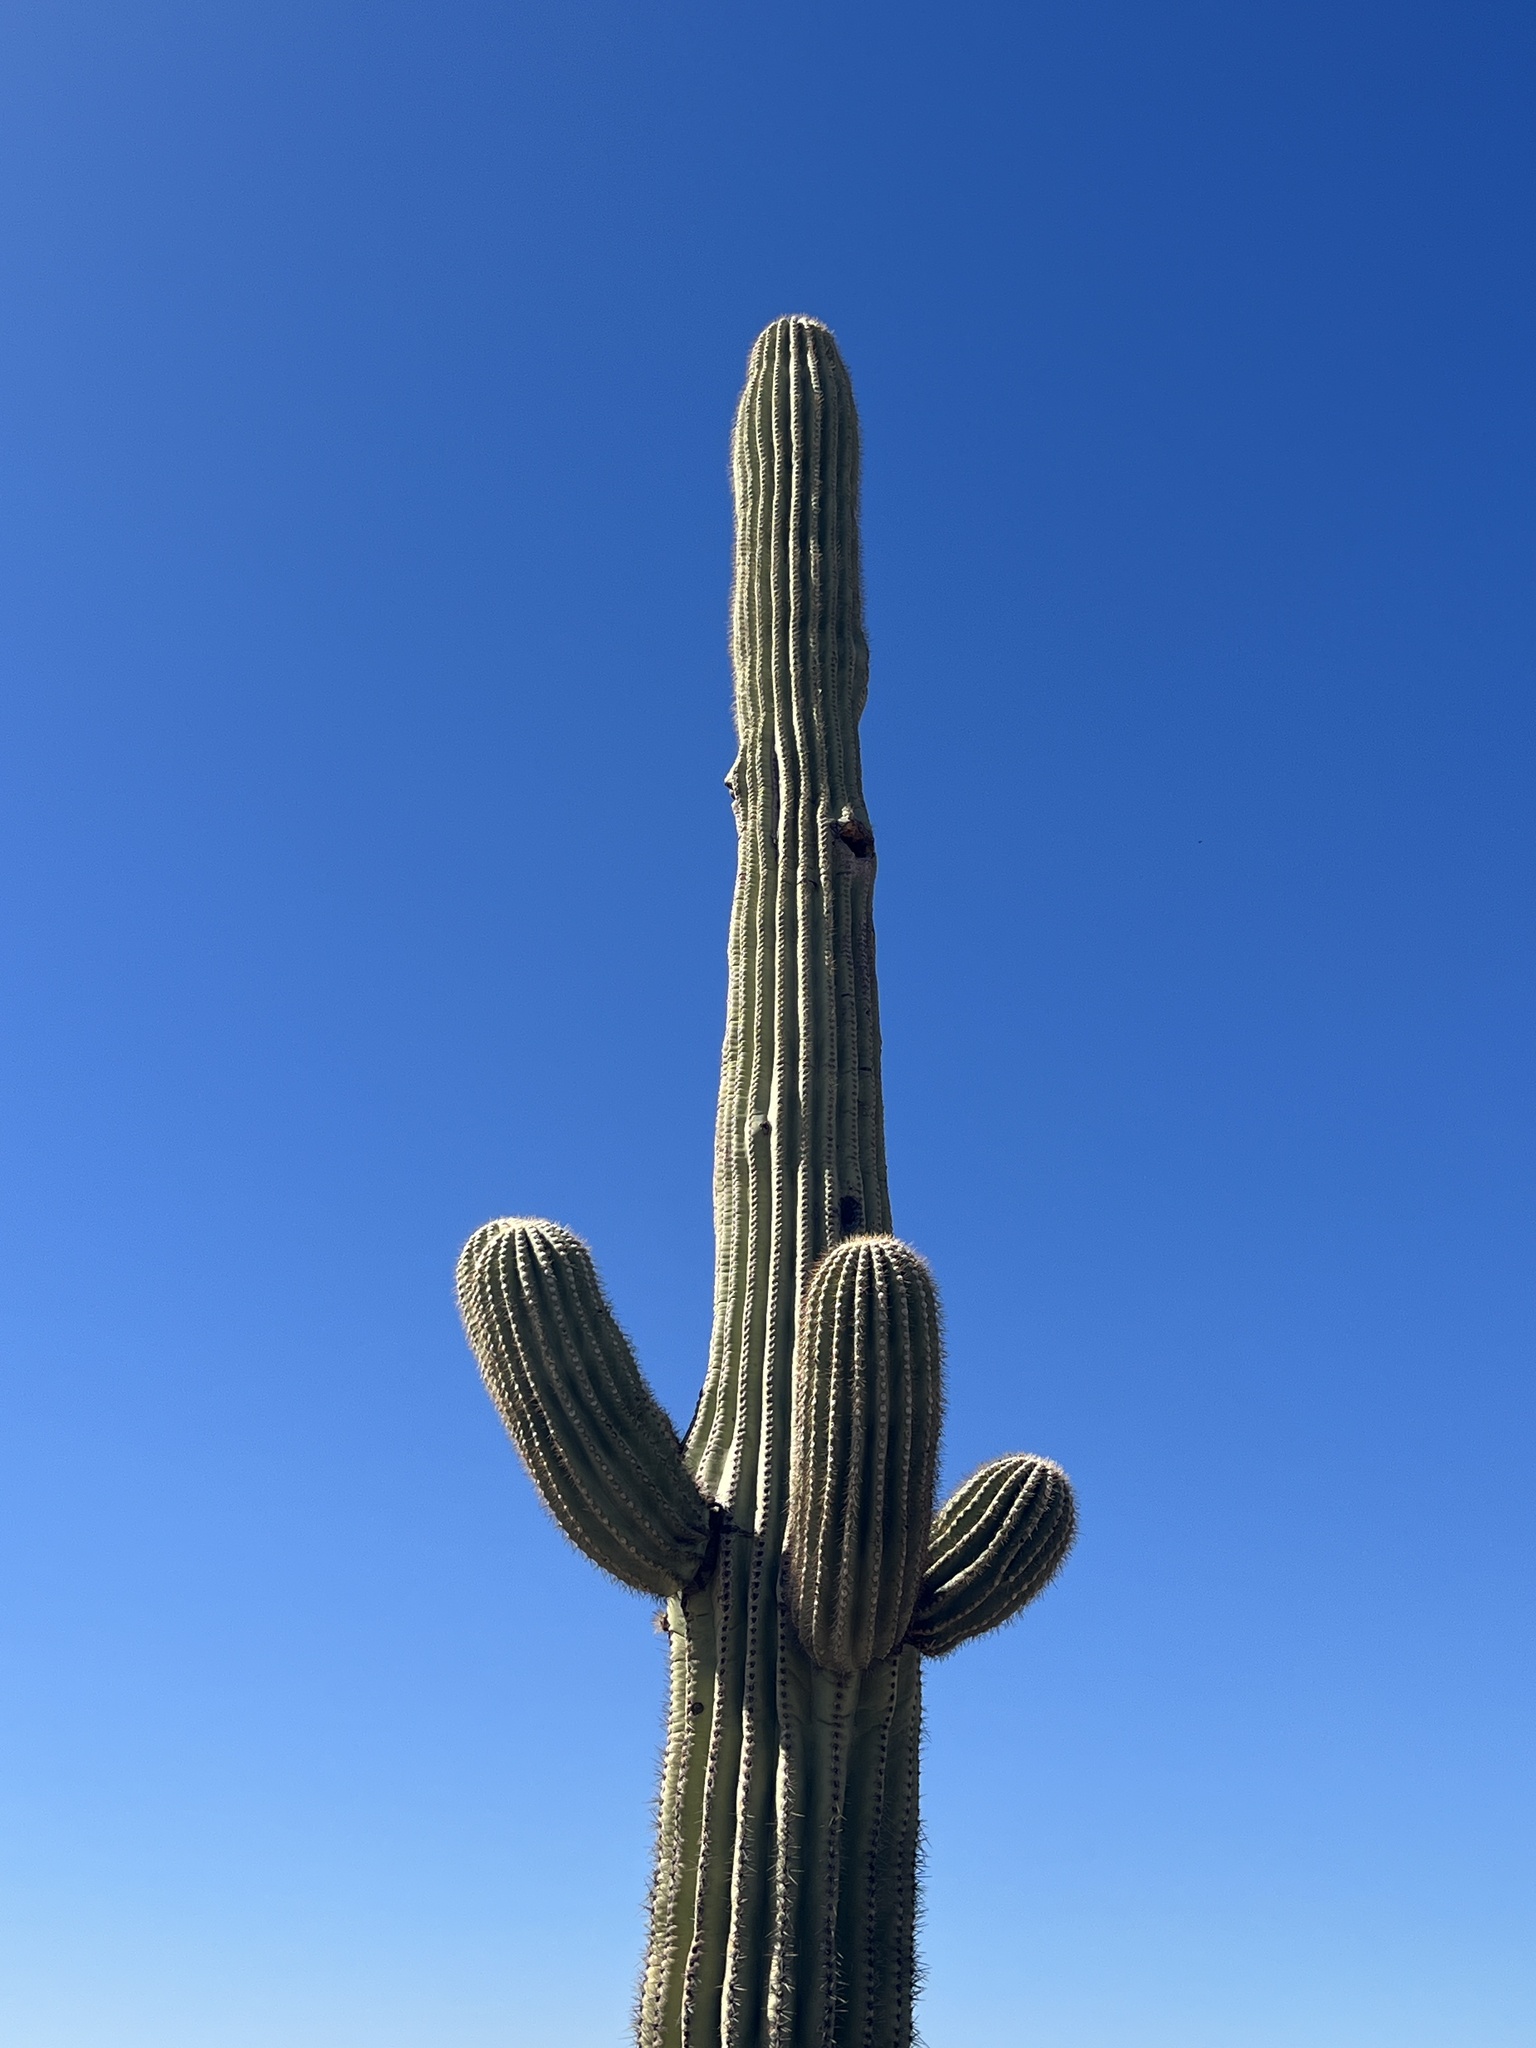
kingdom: Plantae
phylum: Tracheophyta
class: Magnoliopsida
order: Caryophyllales
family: Cactaceae
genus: Carnegiea
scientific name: Carnegiea gigantea
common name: Saguaro
